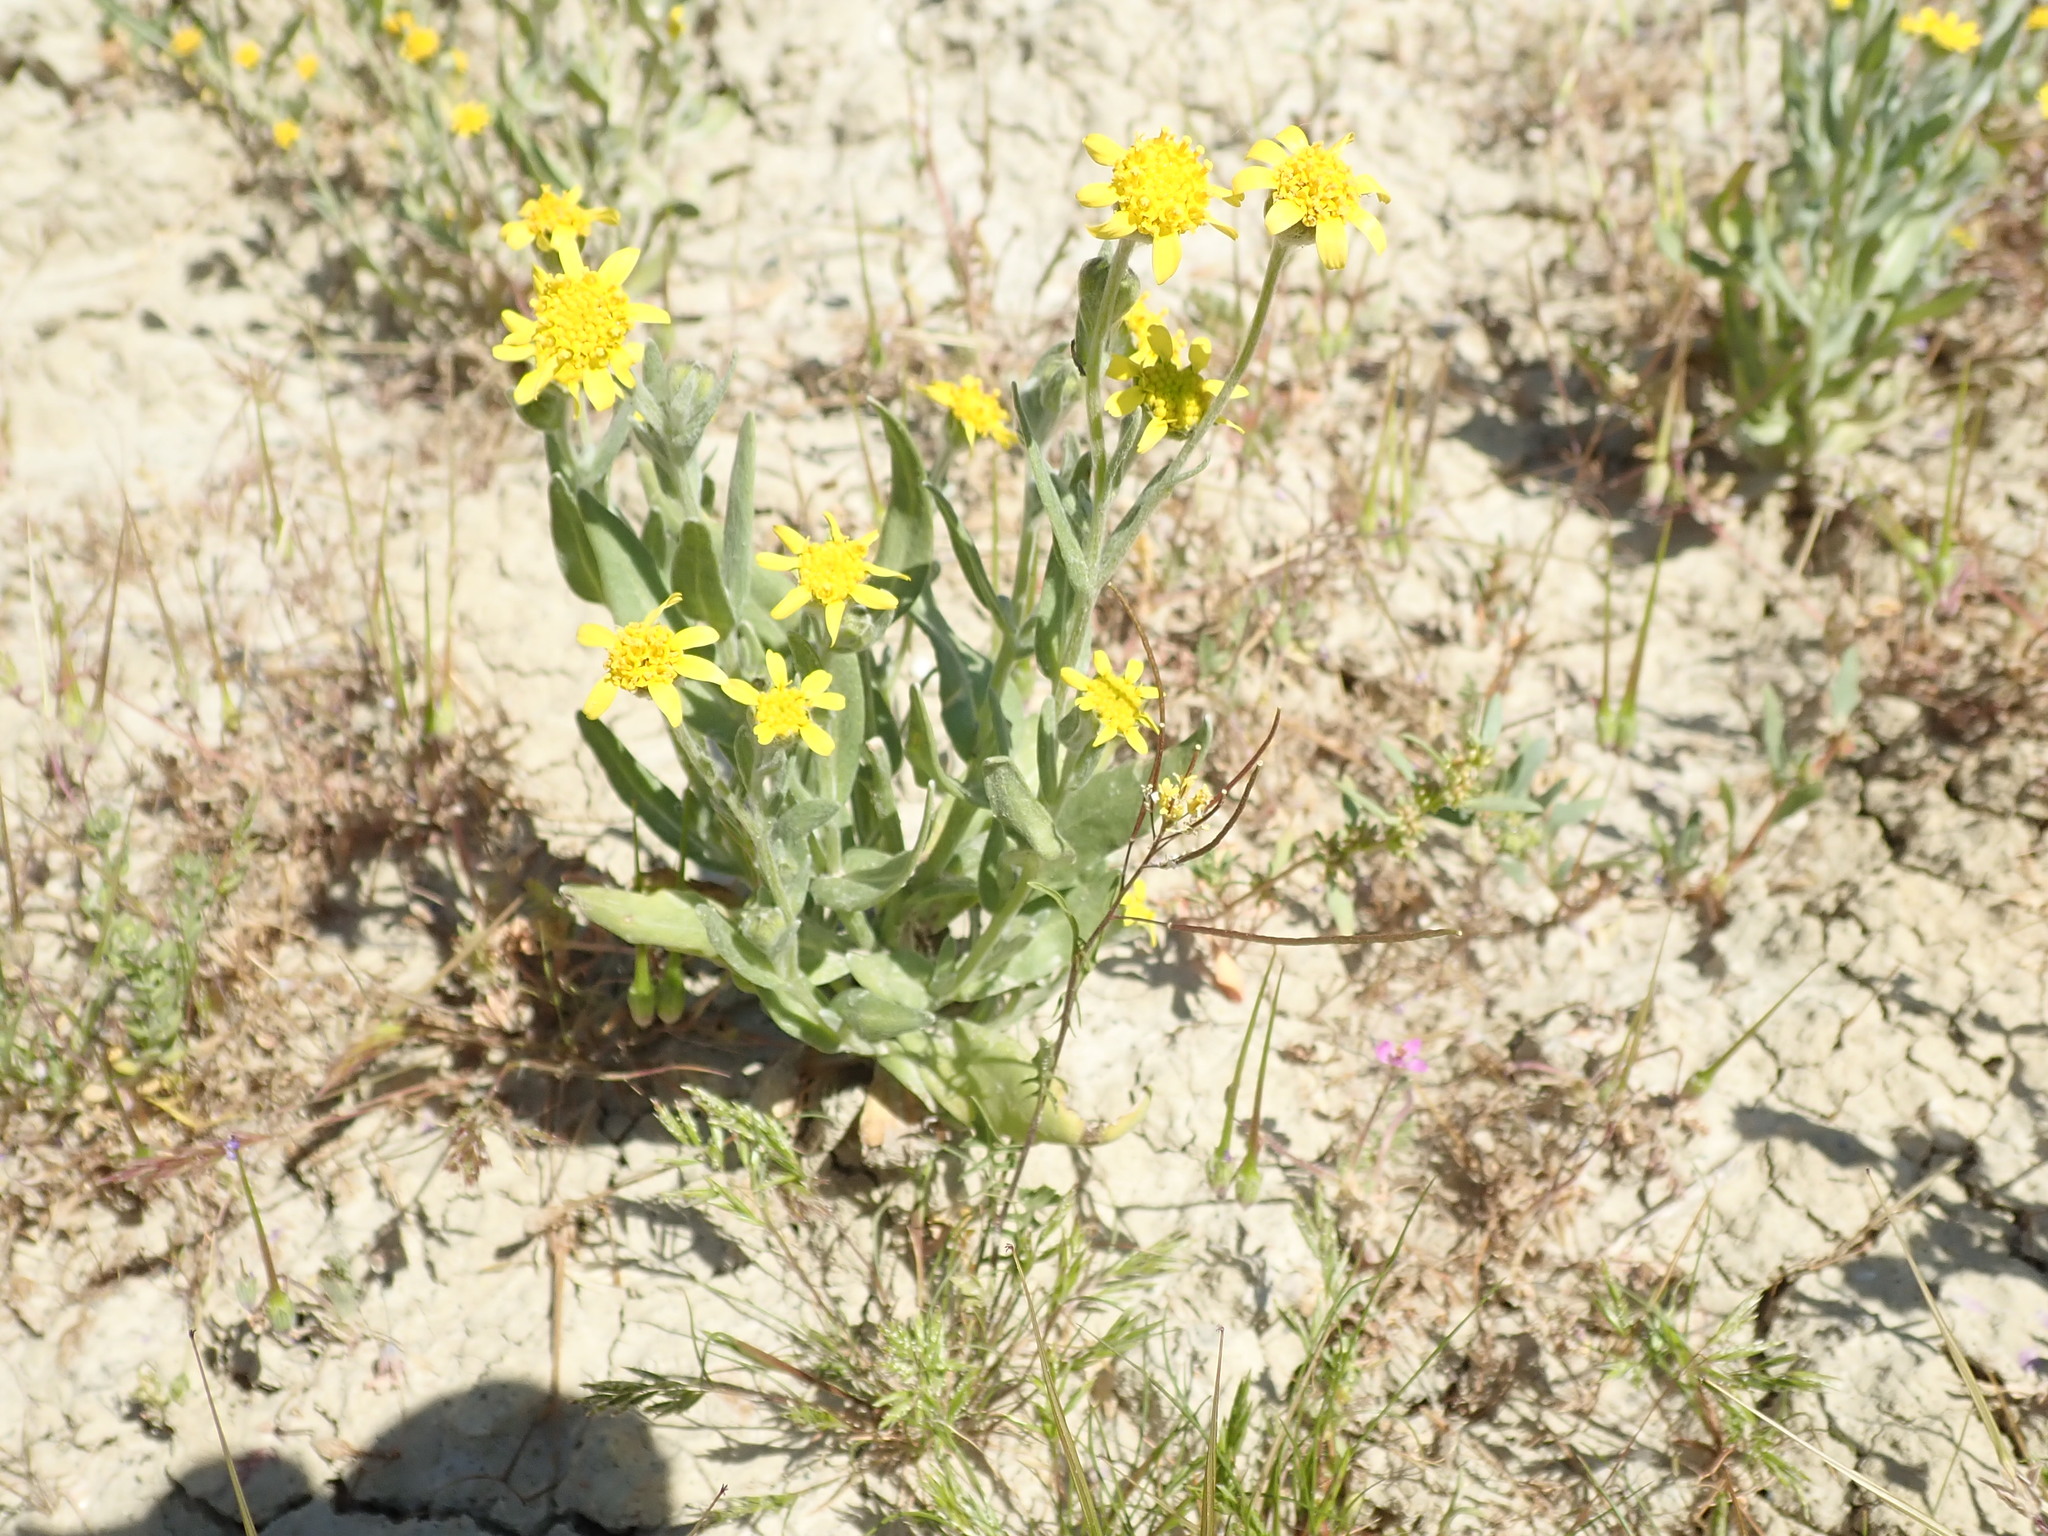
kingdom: Plantae
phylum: Tracheophyta
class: Magnoliopsida
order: Asterales
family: Asteraceae
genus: Monolopia
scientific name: Monolopia stricta
